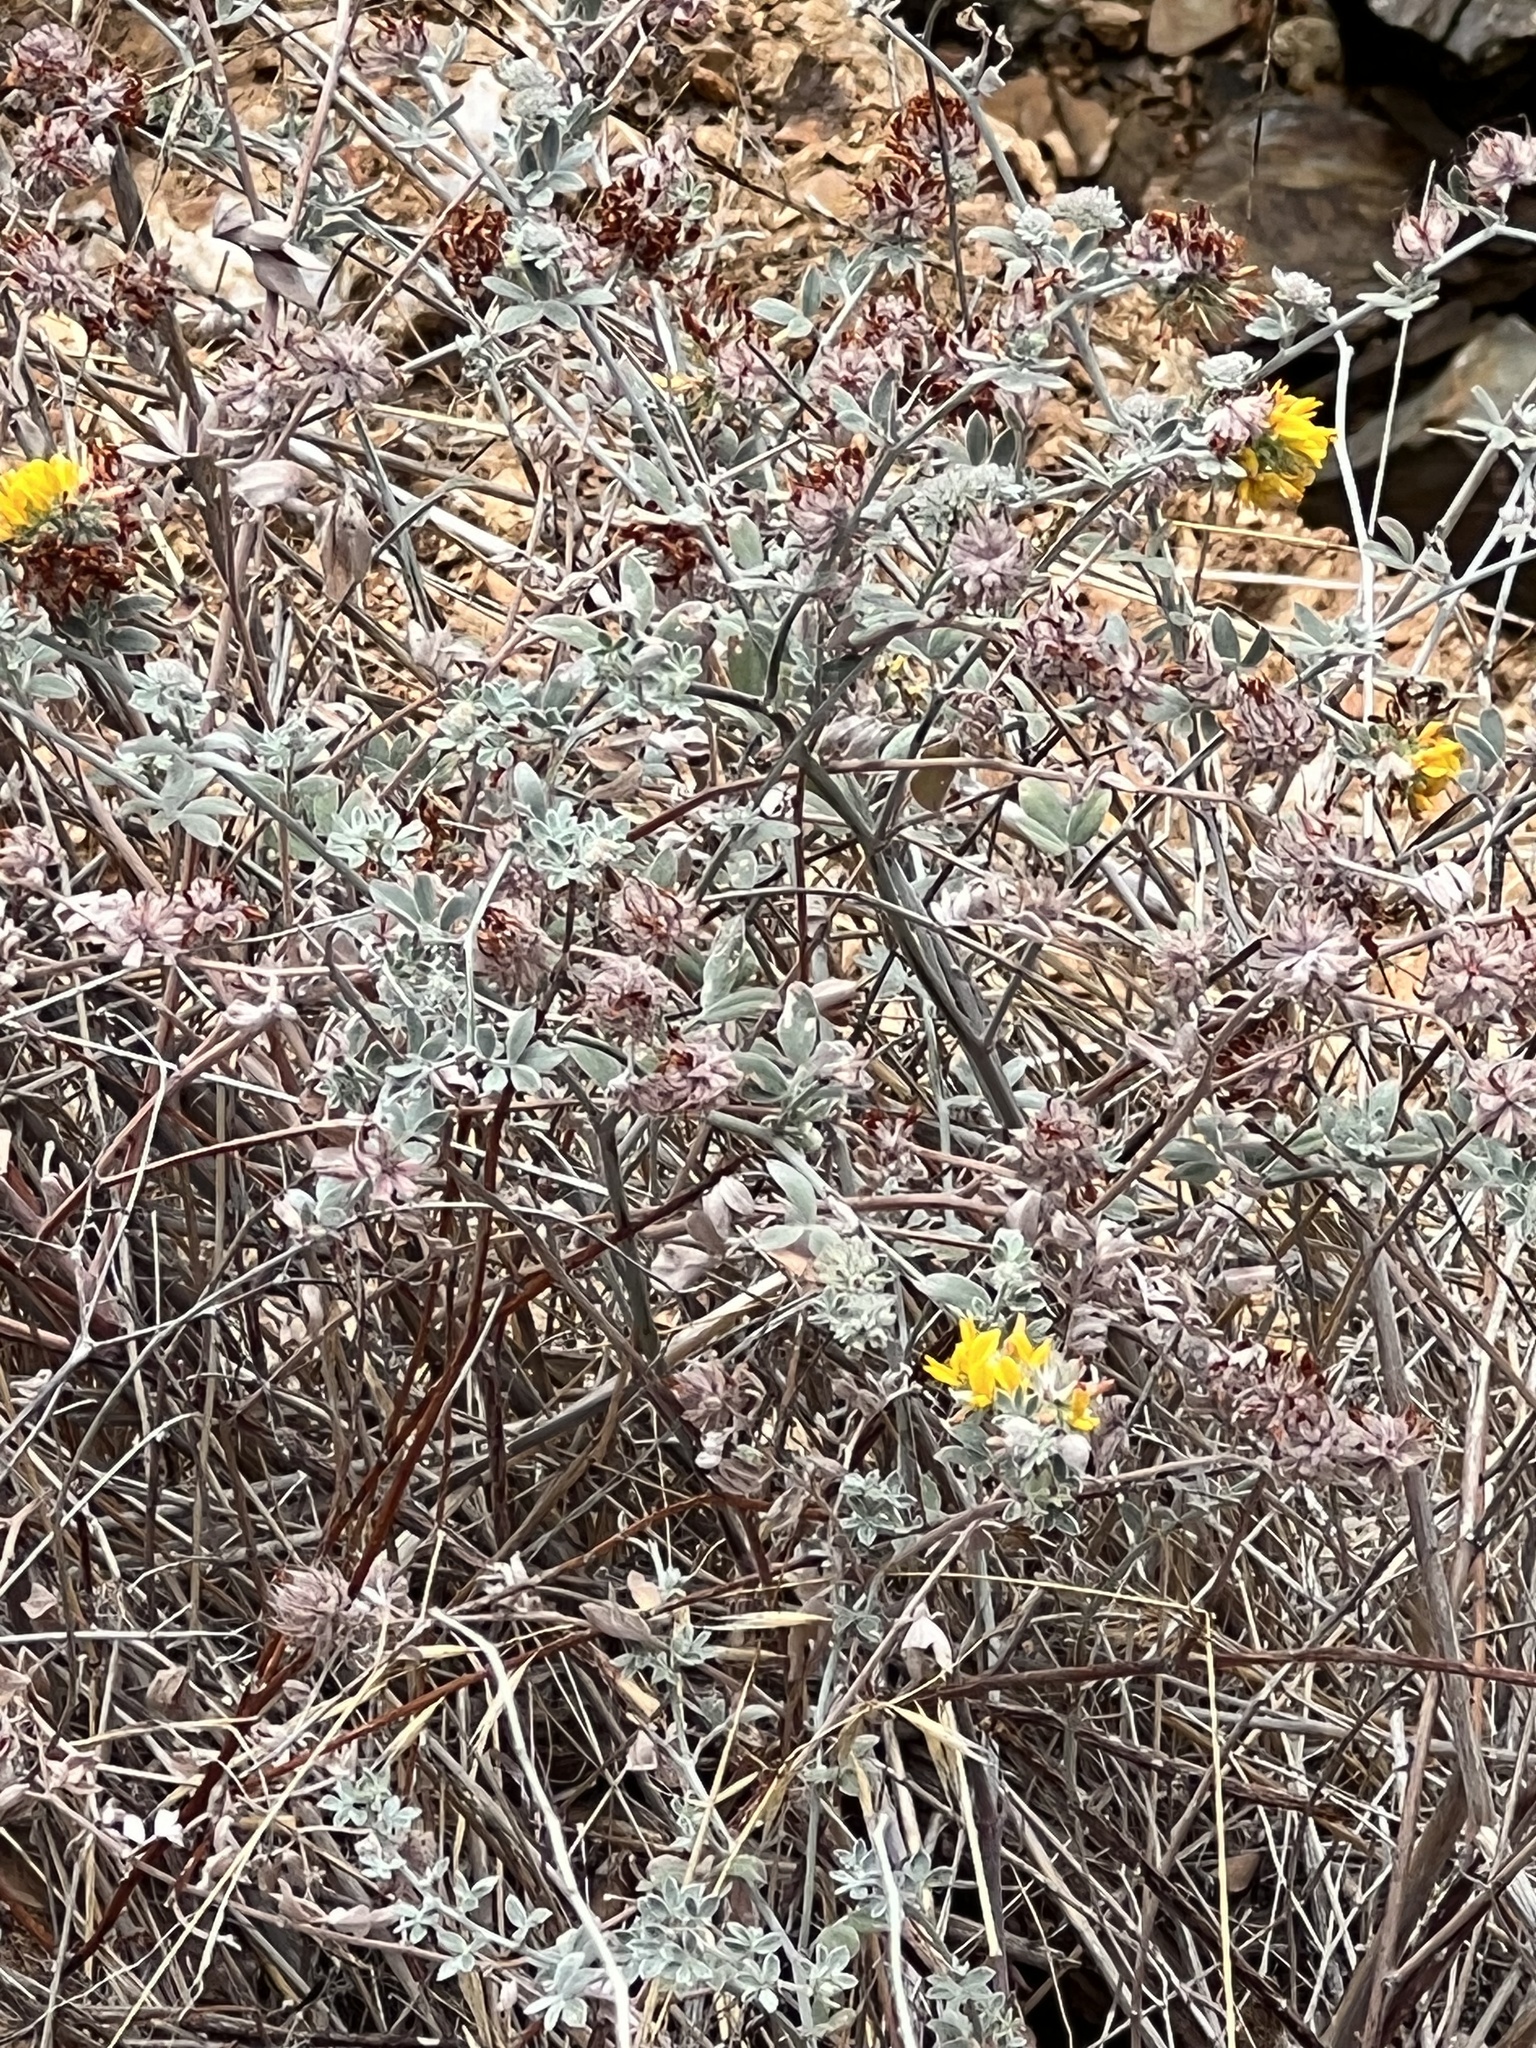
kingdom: Plantae
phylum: Tracheophyta
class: Magnoliopsida
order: Fabales
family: Fabaceae
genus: Acmispon
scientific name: Acmispon argophyllus
